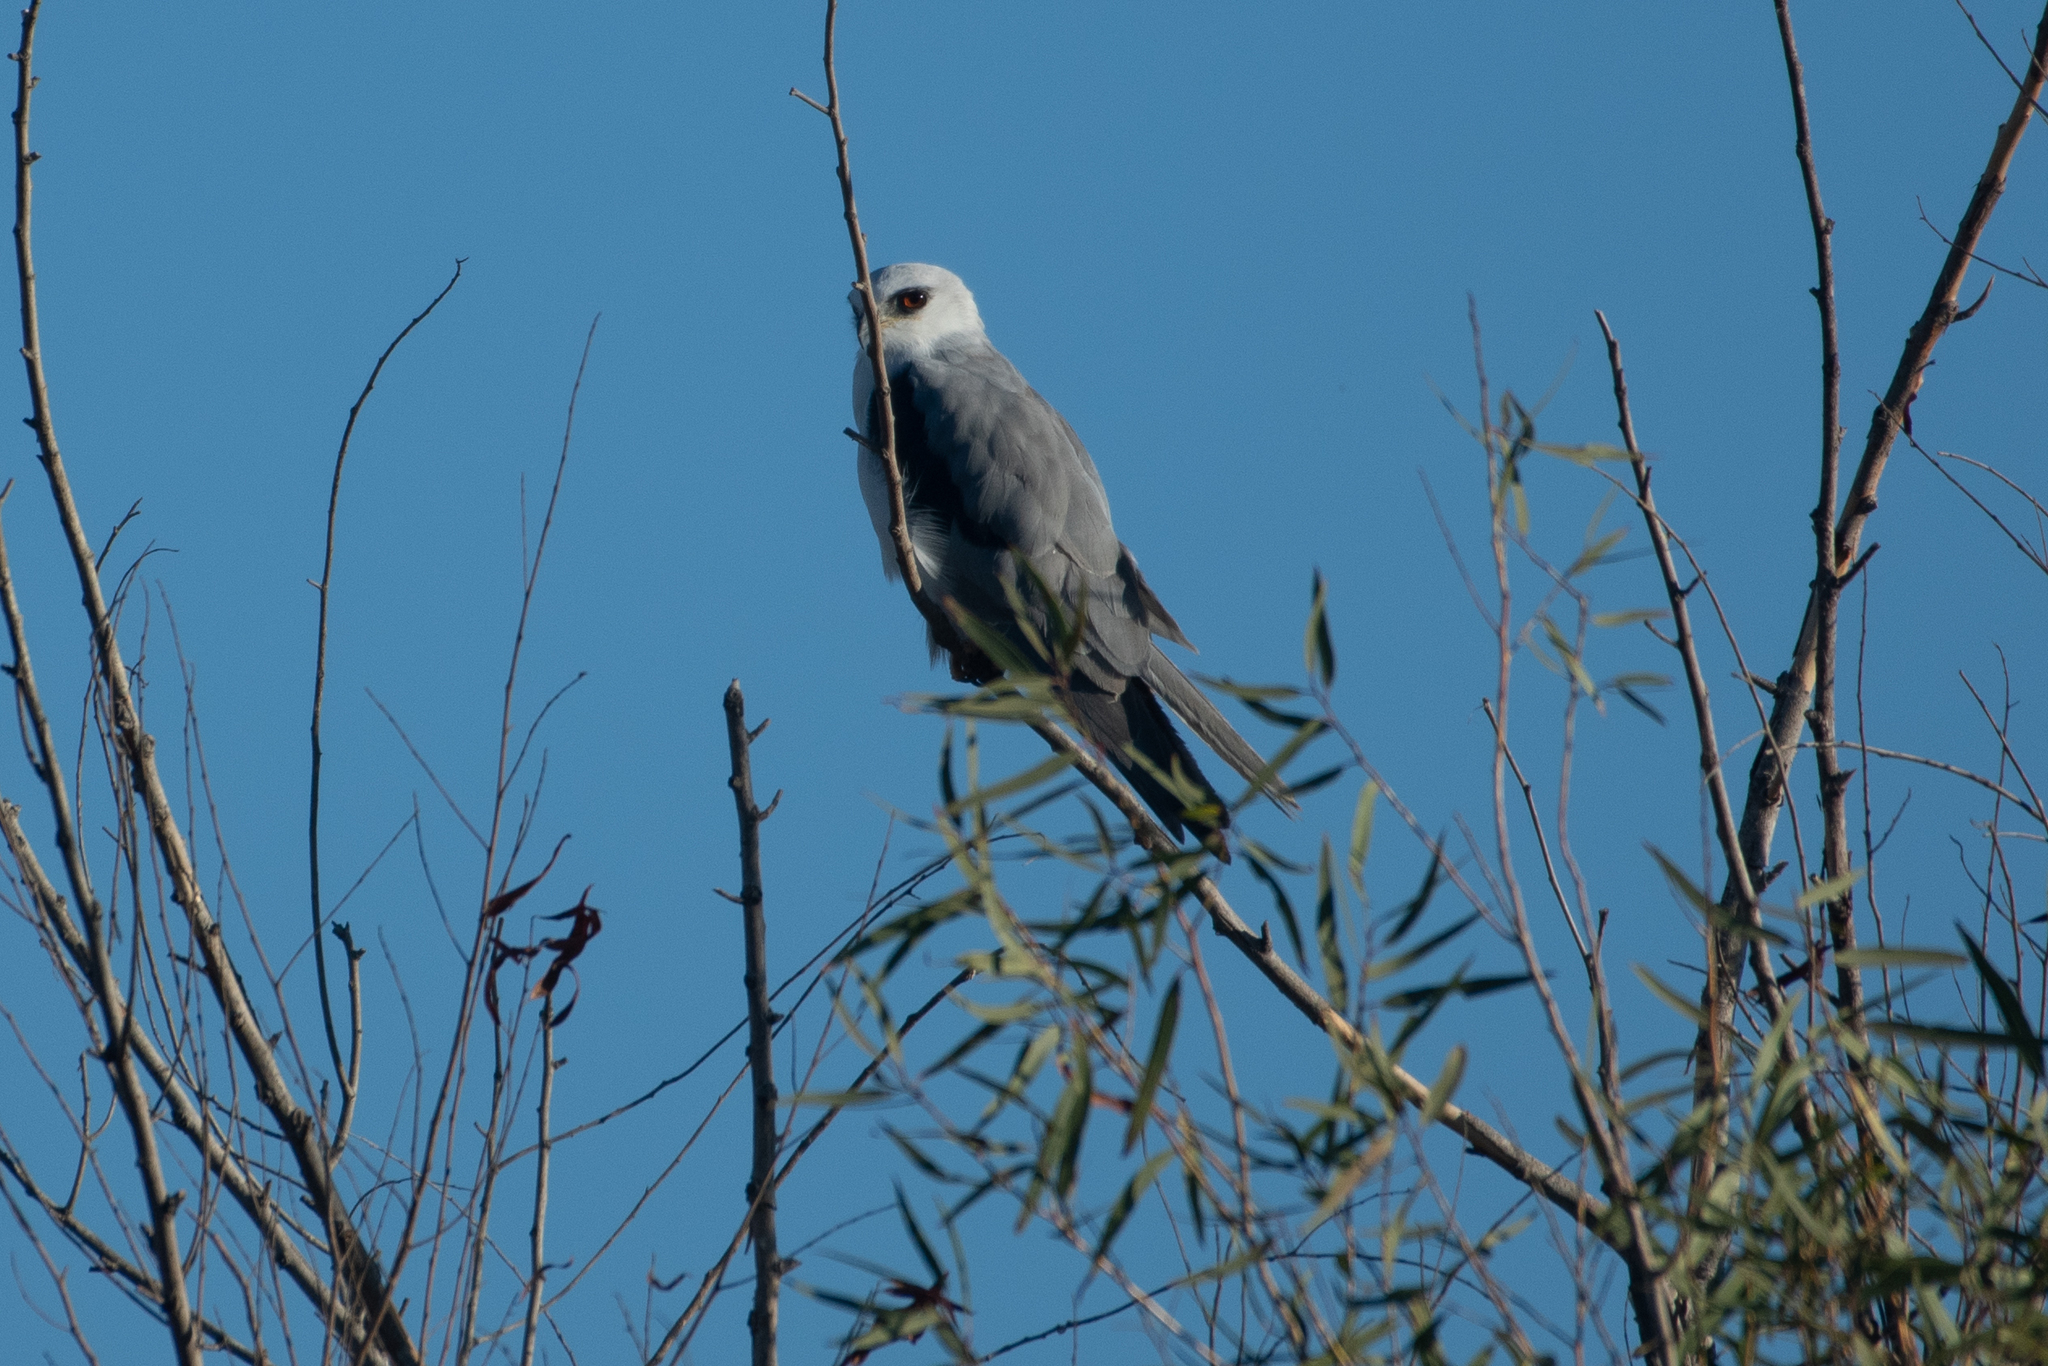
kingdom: Animalia
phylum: Chordata
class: Aves
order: Accipitriformes
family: Accipitridae
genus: Elanus
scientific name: Elanus leucurus
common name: White-tailed kite
